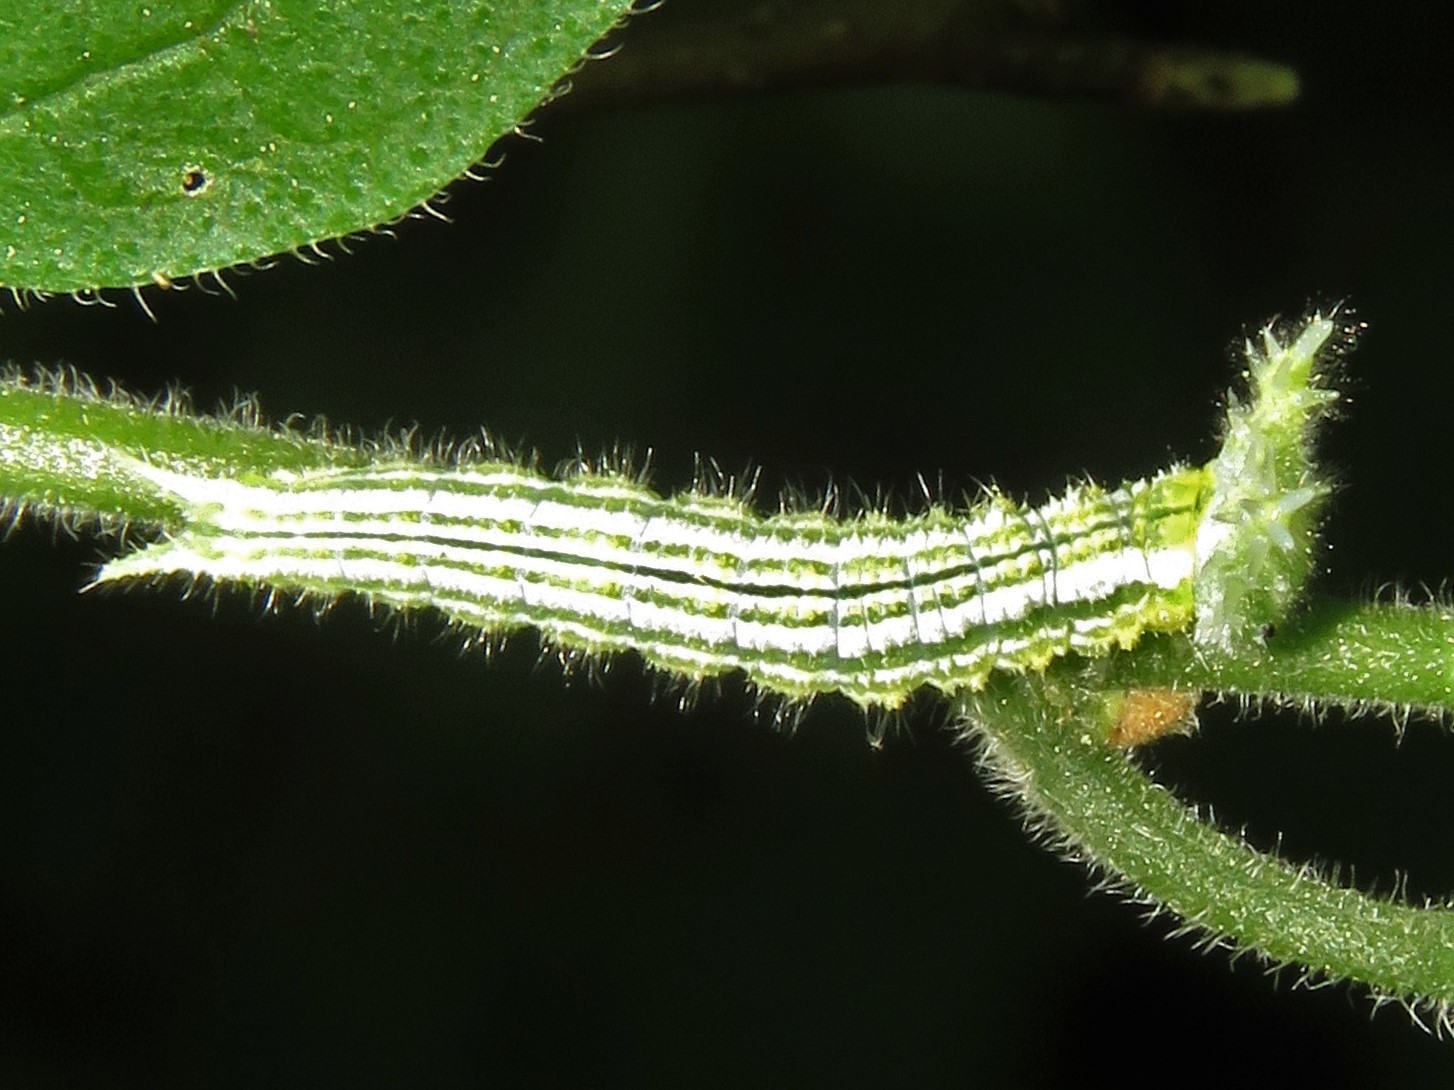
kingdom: Animalia
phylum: Arthropoda
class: Insecta
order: Lepidoptera
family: Nymphalidae
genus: Asterocampa
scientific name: Asterocampa clyton
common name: Tawny emperor
